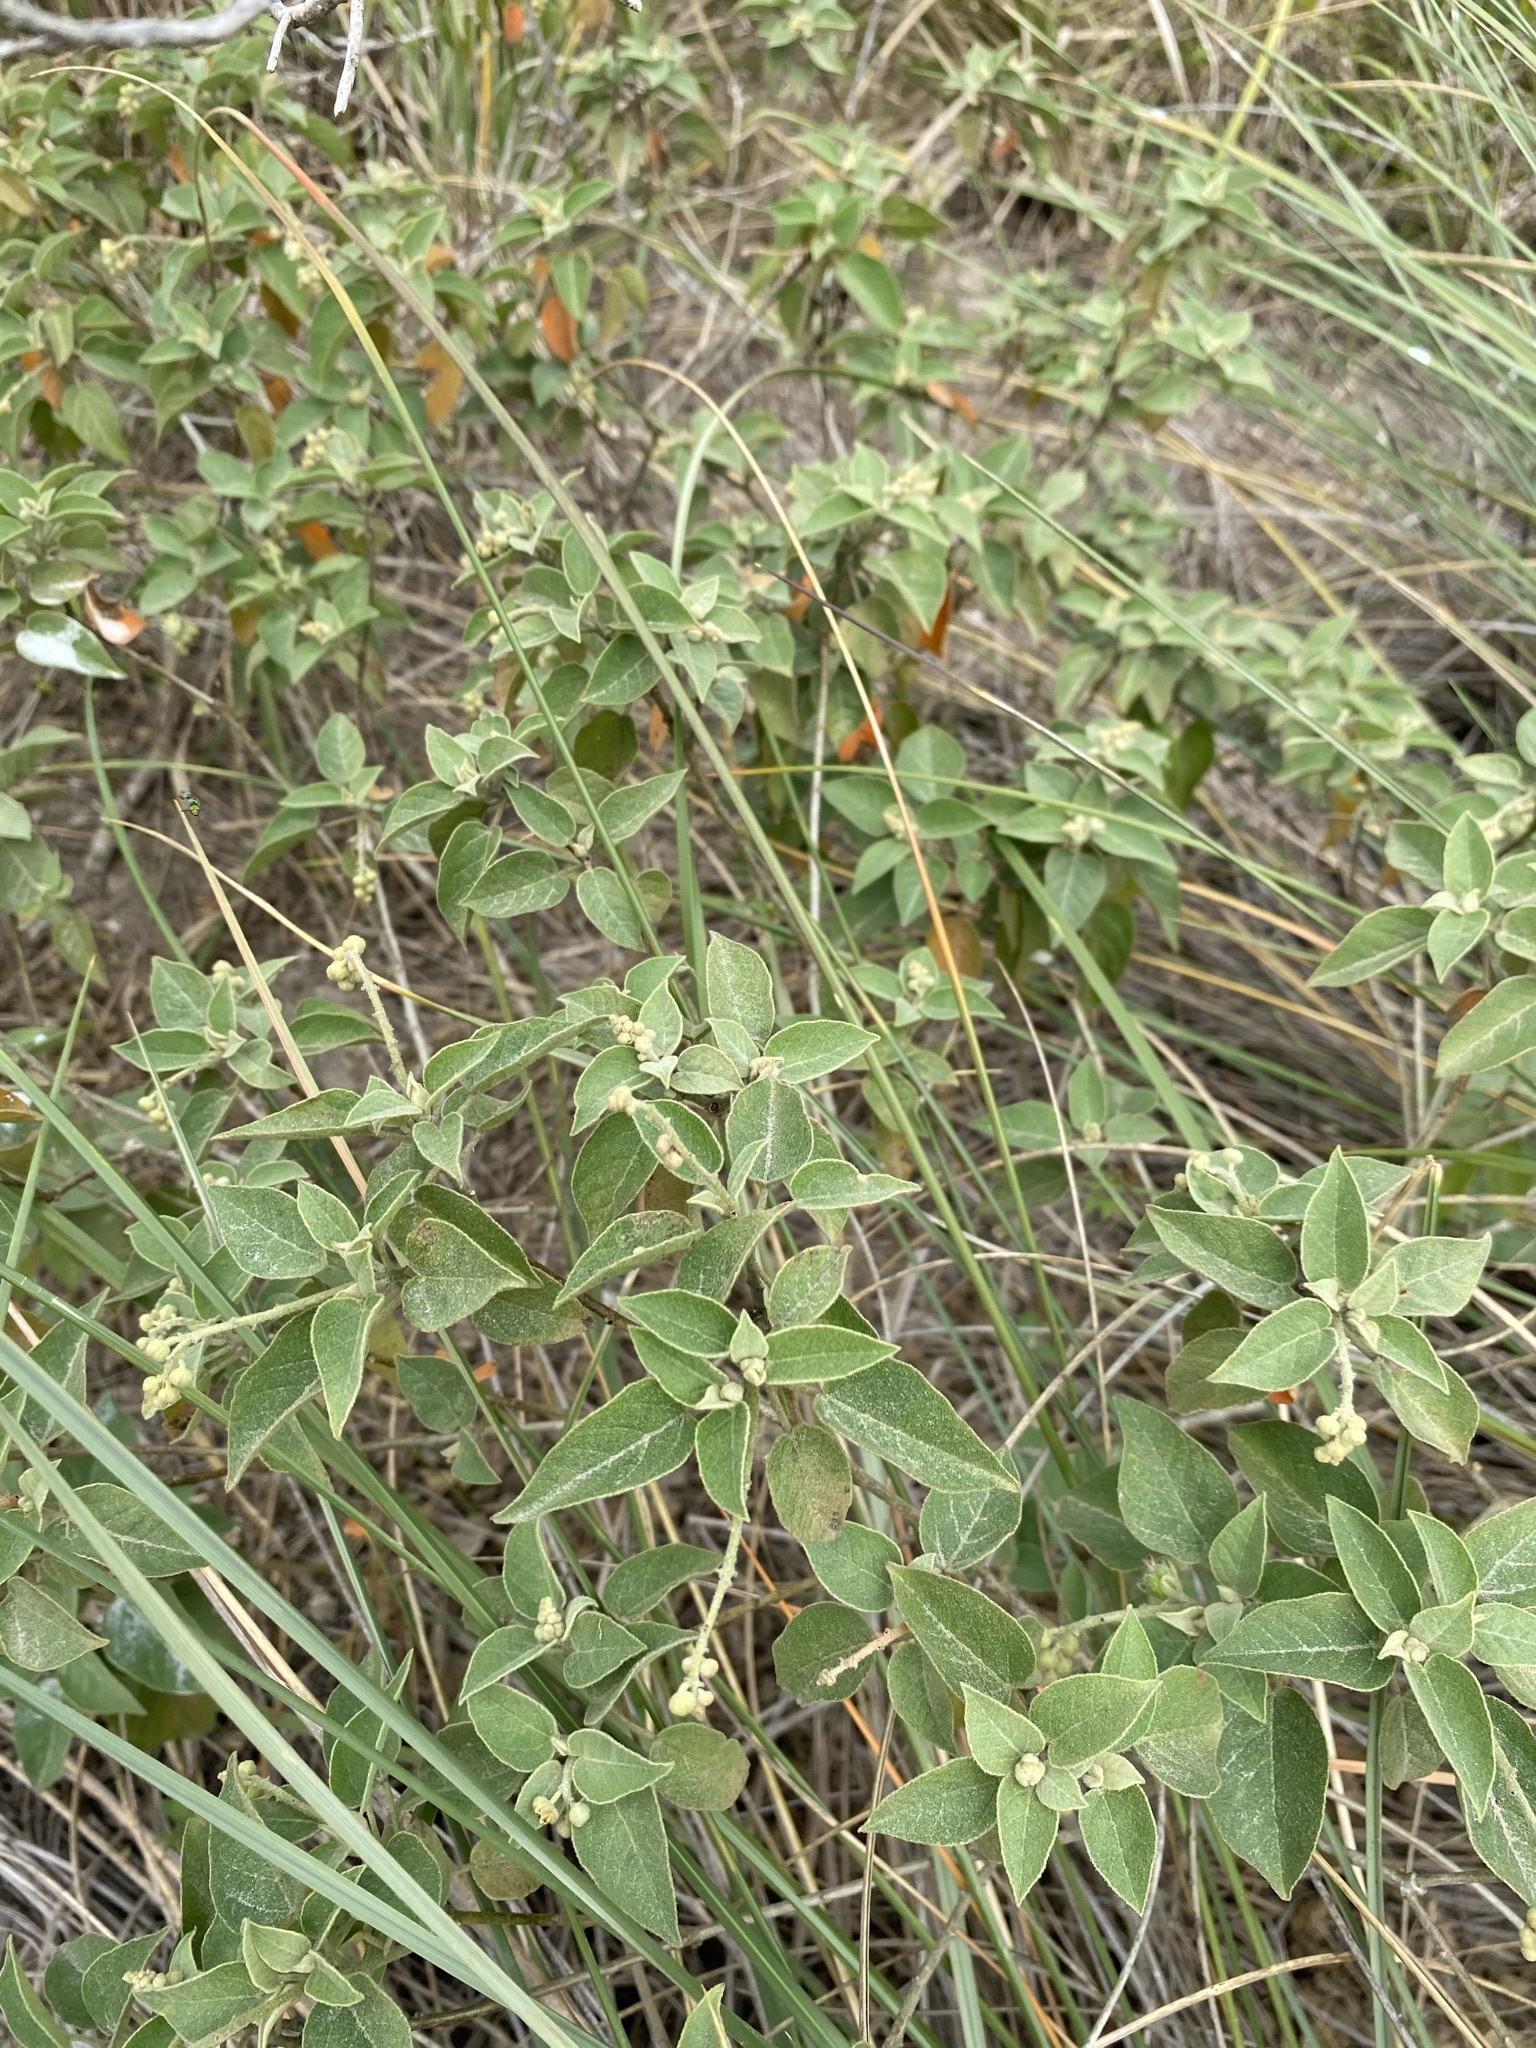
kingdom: Plantae
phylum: Tracheophyta
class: Magnoliopsida
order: Malpighiales
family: Euphorbiaceae
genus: Croton
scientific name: Croton humilis
